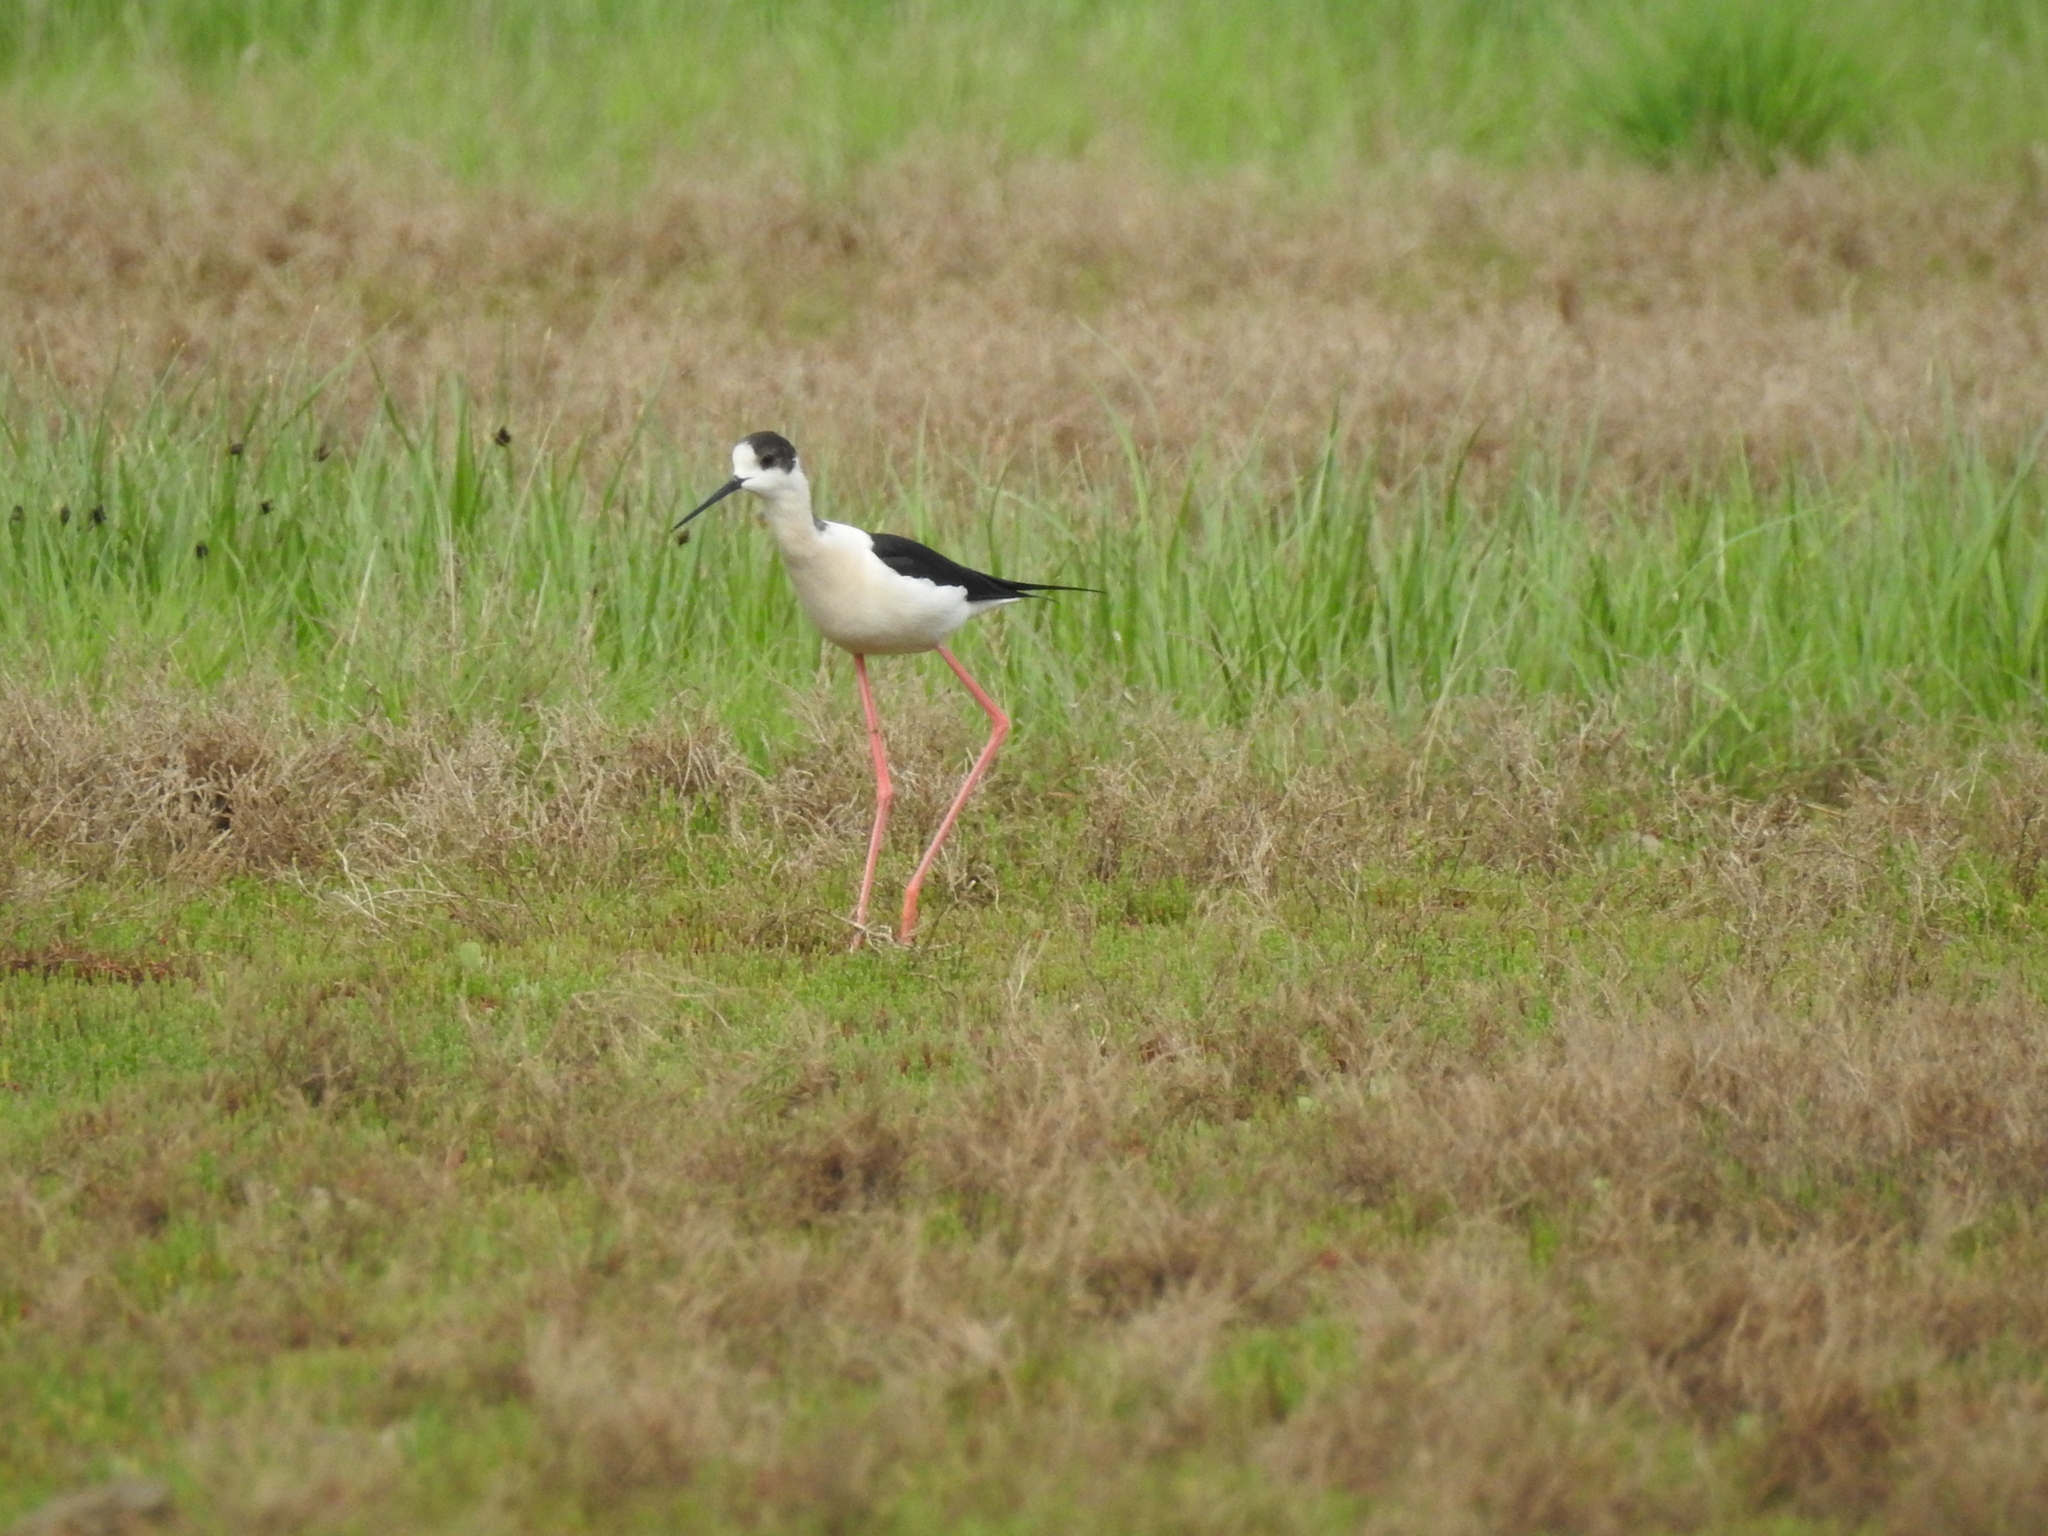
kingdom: Animalia
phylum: Chordata
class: Aves
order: Charadriiformes
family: Recurvirostridae
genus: Himantopus
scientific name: Himantopus himantopus
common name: Black-winged stilt
